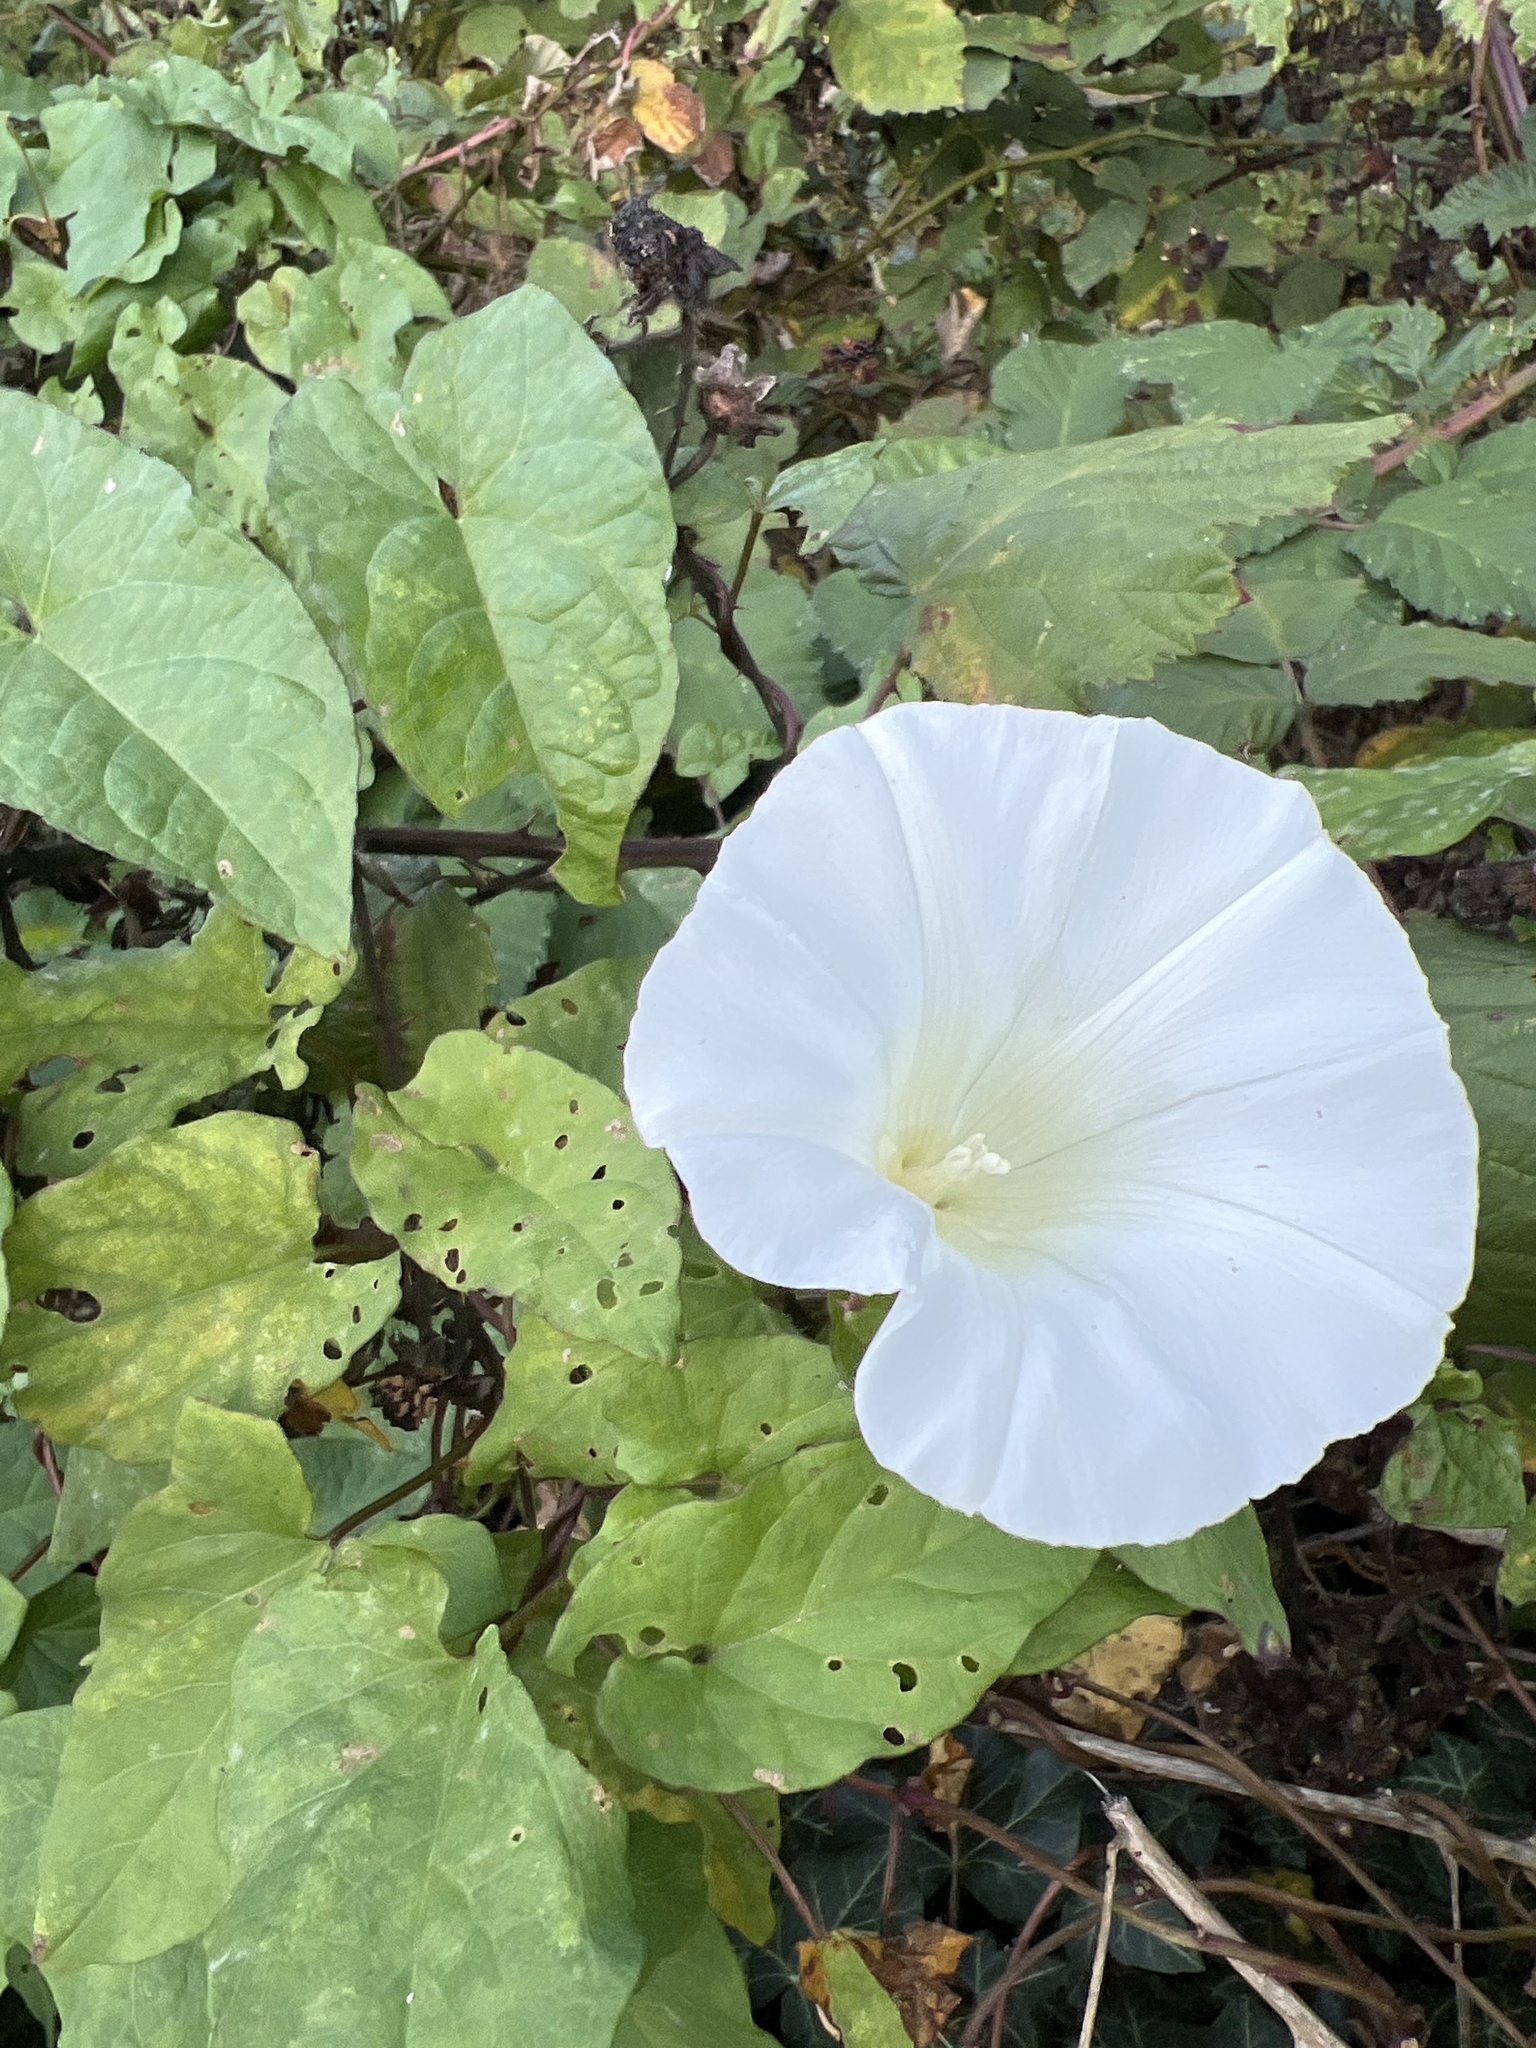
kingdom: Plantae
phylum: Tracheophyta
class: Magnoliopsida
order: Solanales
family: Convolvulaceae
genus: Calystegia
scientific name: Calystegia silvatica
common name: Large bindweed
